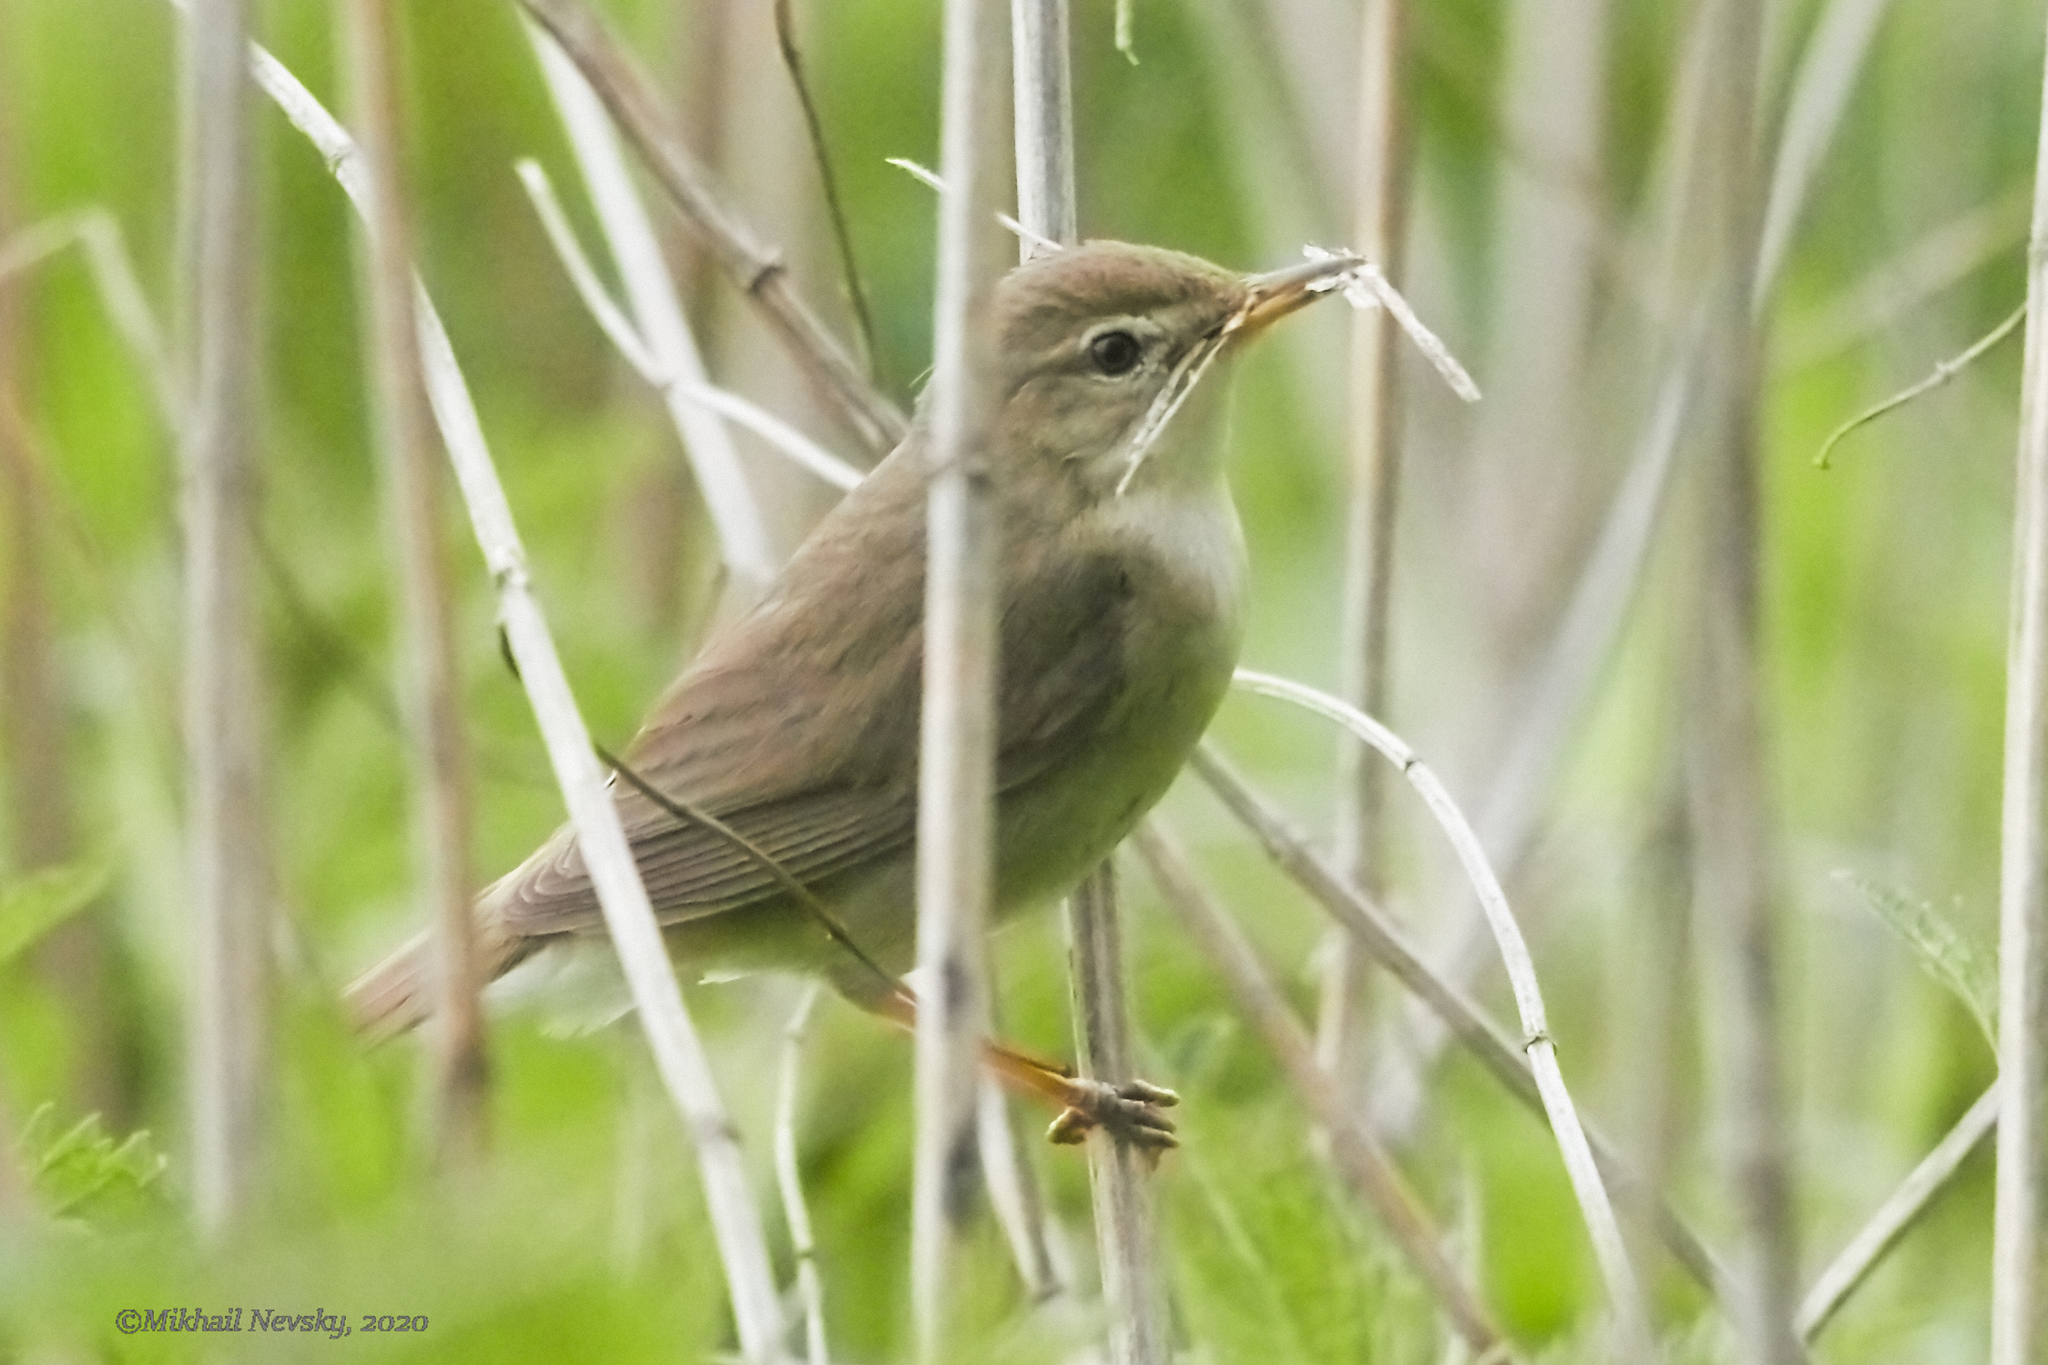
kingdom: Animalia
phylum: Chordata
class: Aves
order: Passeriformes
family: Acrocephalidae
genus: Acrocephalus
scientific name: Acrocephalus dumetorum
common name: Blyth's reed warbler
